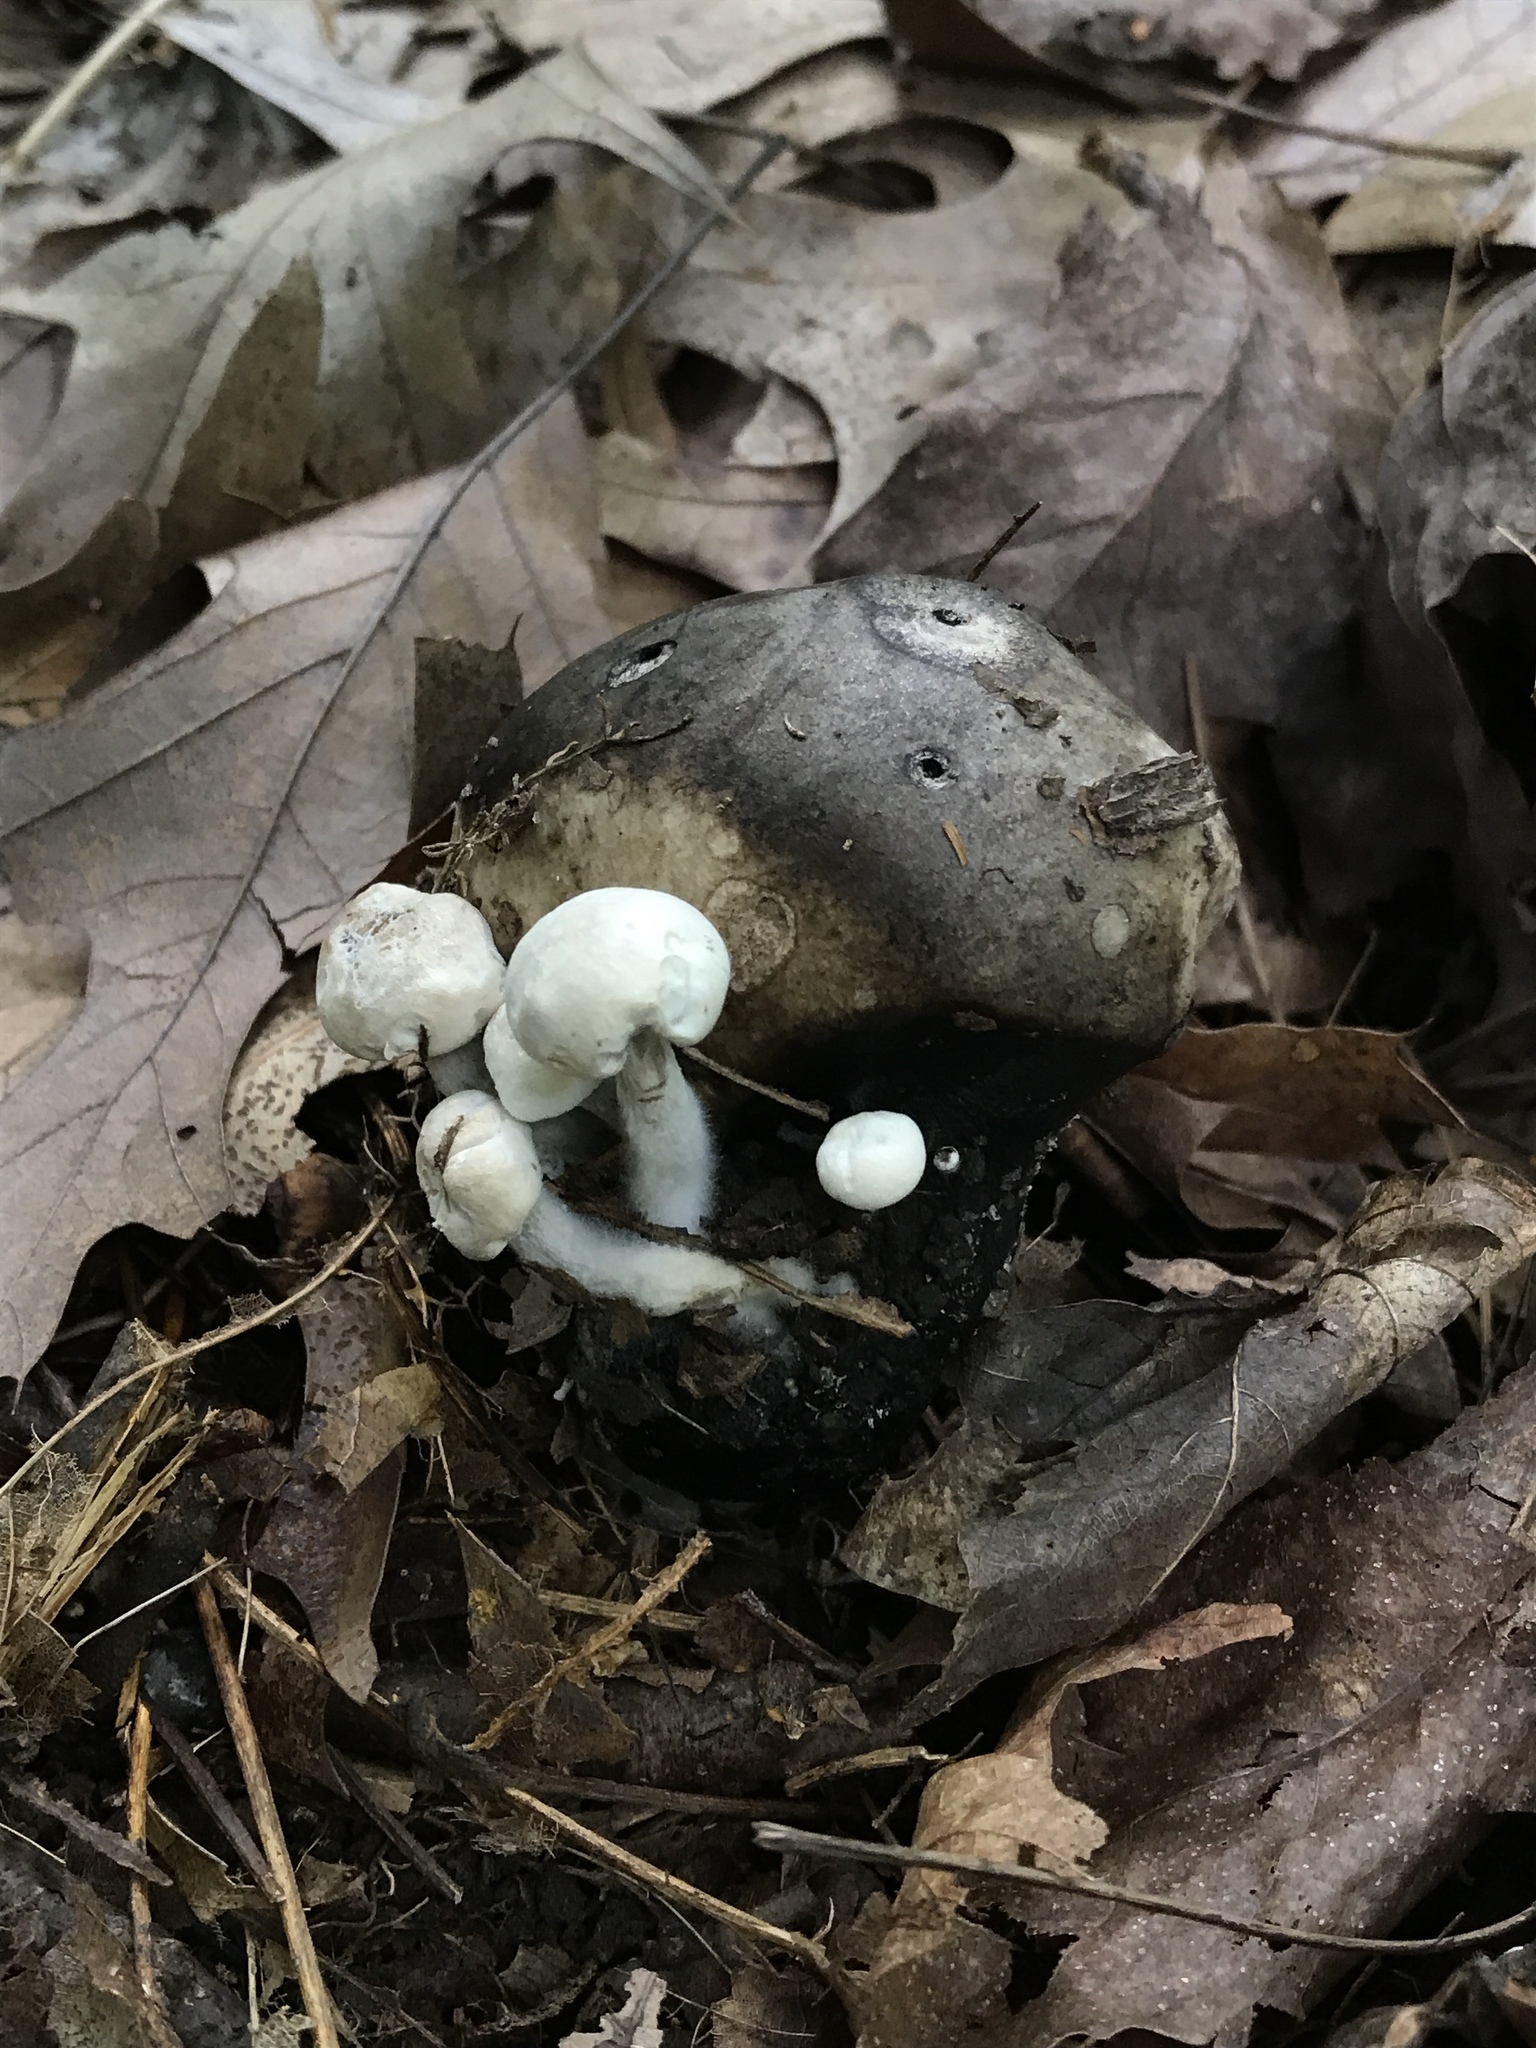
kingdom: Fungi
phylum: Basidiomycota
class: Agaricomycetes
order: Agaricales
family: Lyophyllaceae
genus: Asterophora
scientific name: Asterophora lycoperdoides
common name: Pick-a-back toadstool
